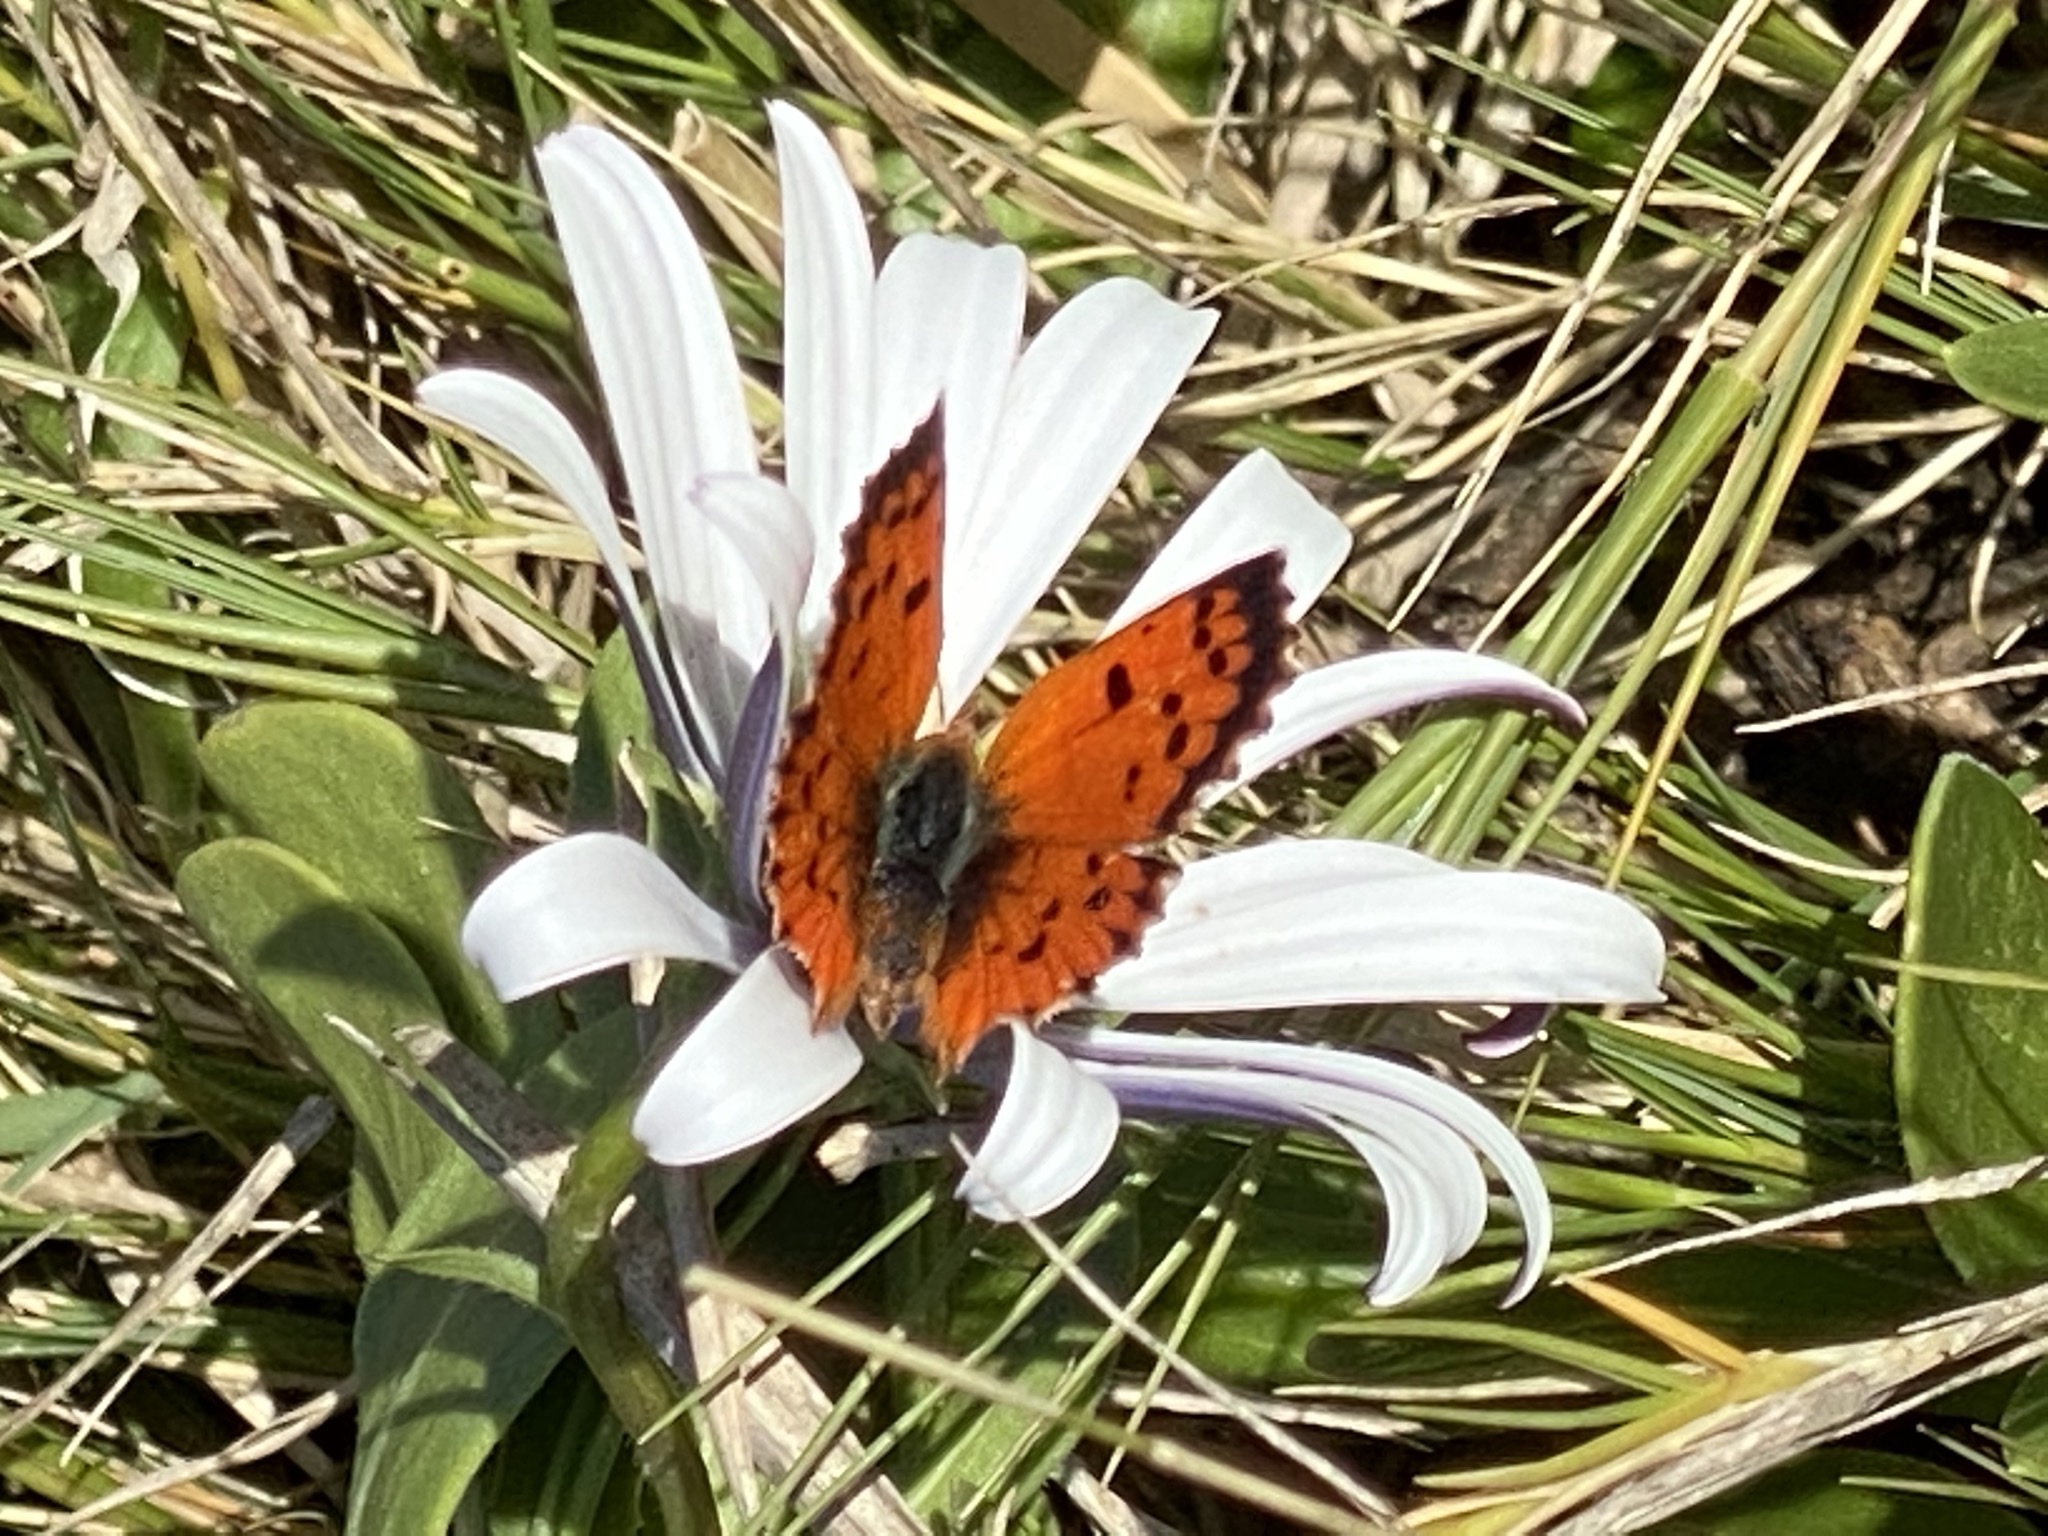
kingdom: Animalia
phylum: Arthropoda
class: Insecta
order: Lepidoptera
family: Lycaenidae
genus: Chrysoritis
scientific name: Chrysoritis
